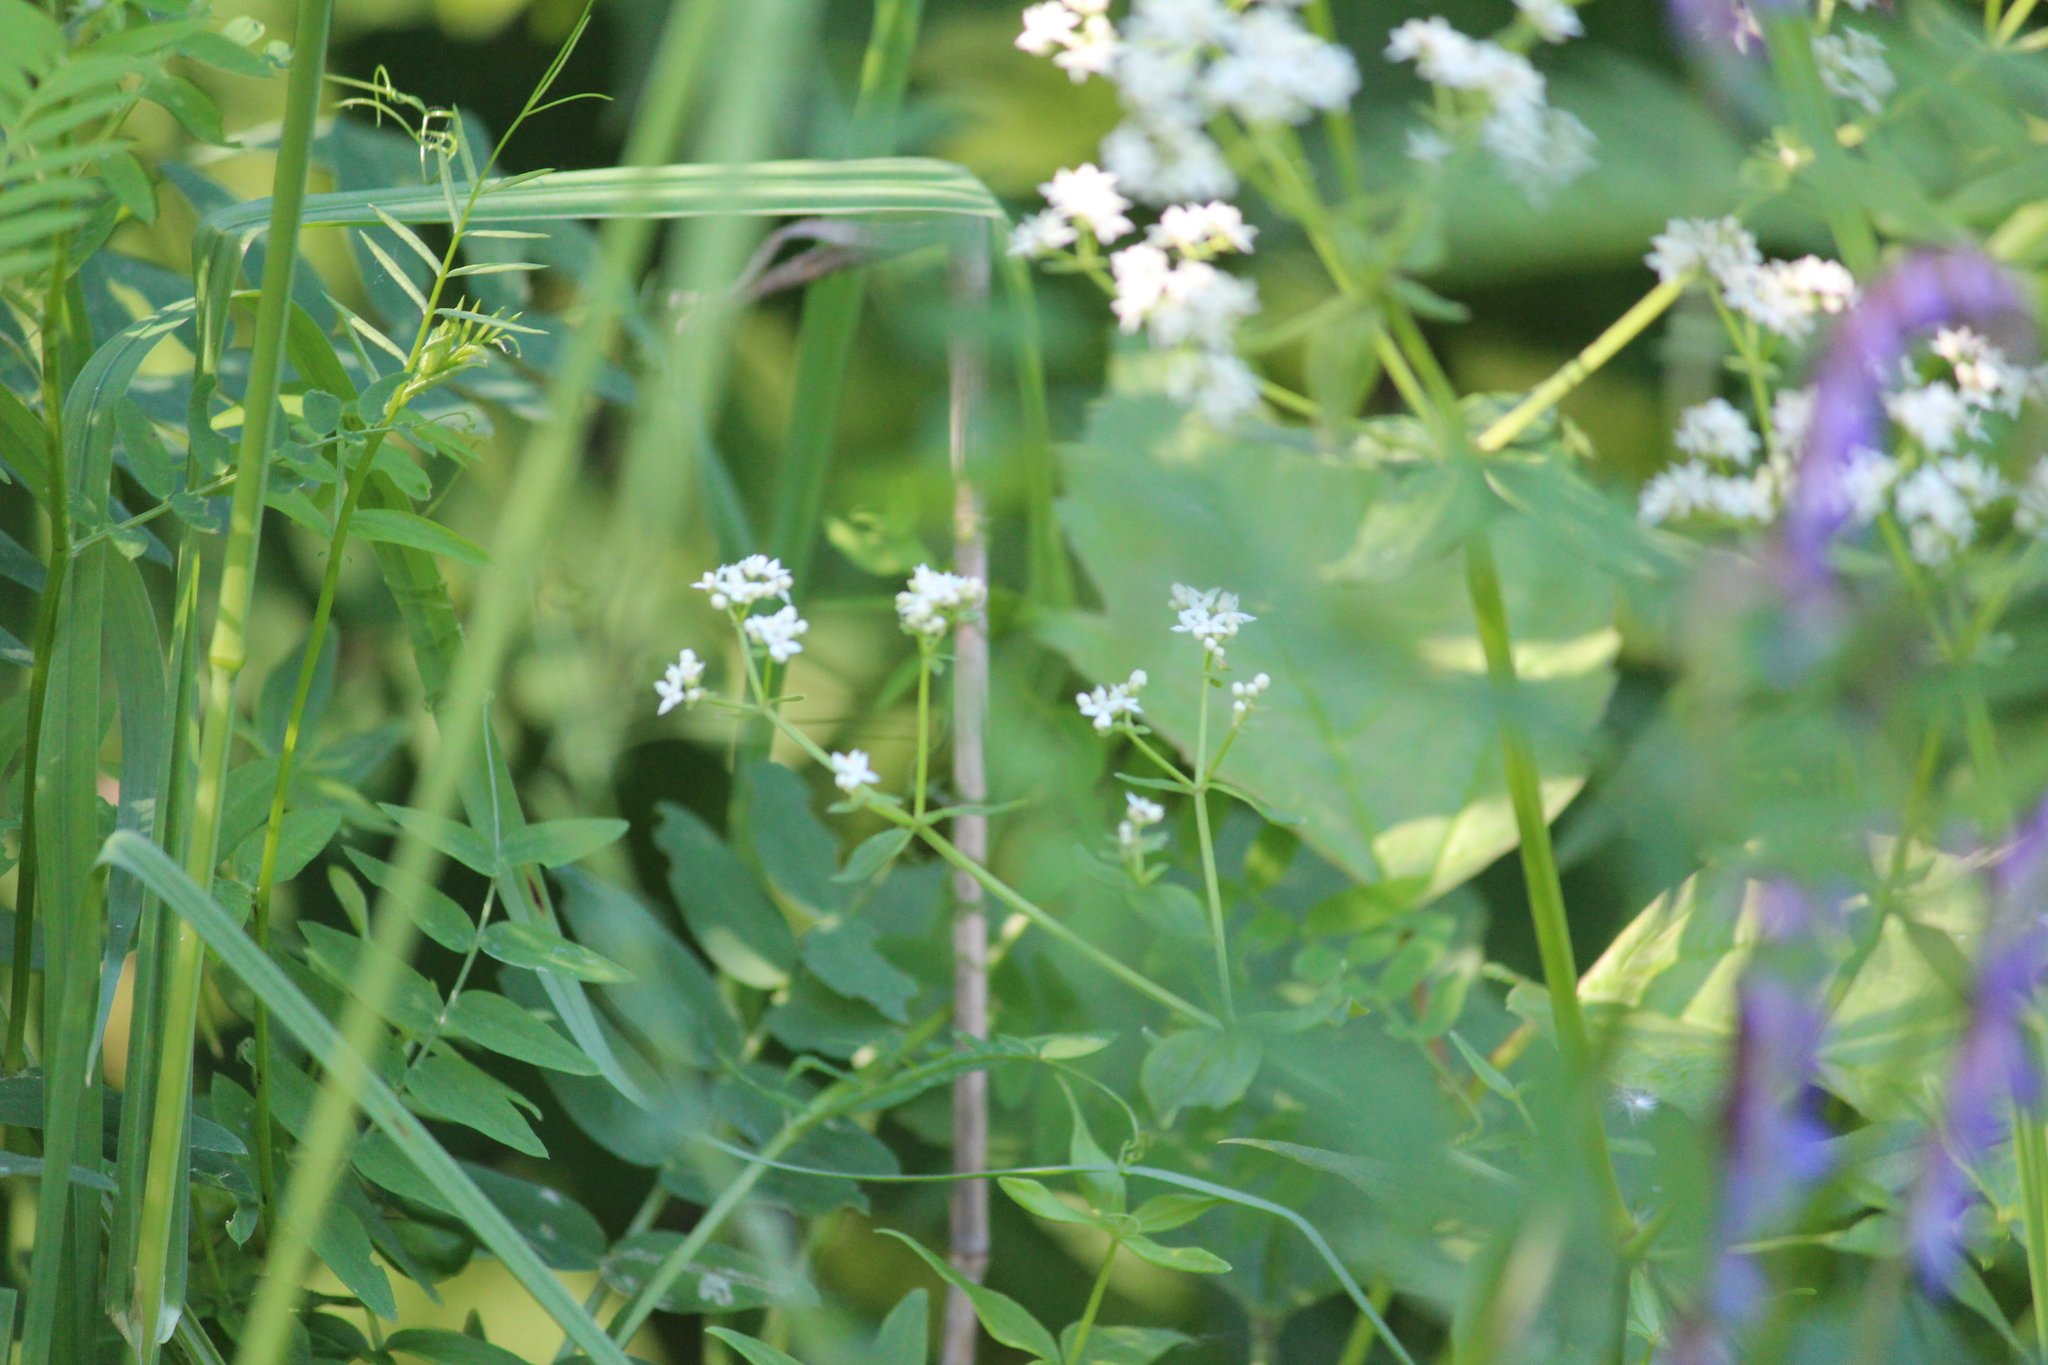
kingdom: Plantae
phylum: Tracheophyta
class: Magnoliopsida
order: Gentianales
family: Rubiaceae
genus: Galium
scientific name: Galium boreale
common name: Northern bedstraw
